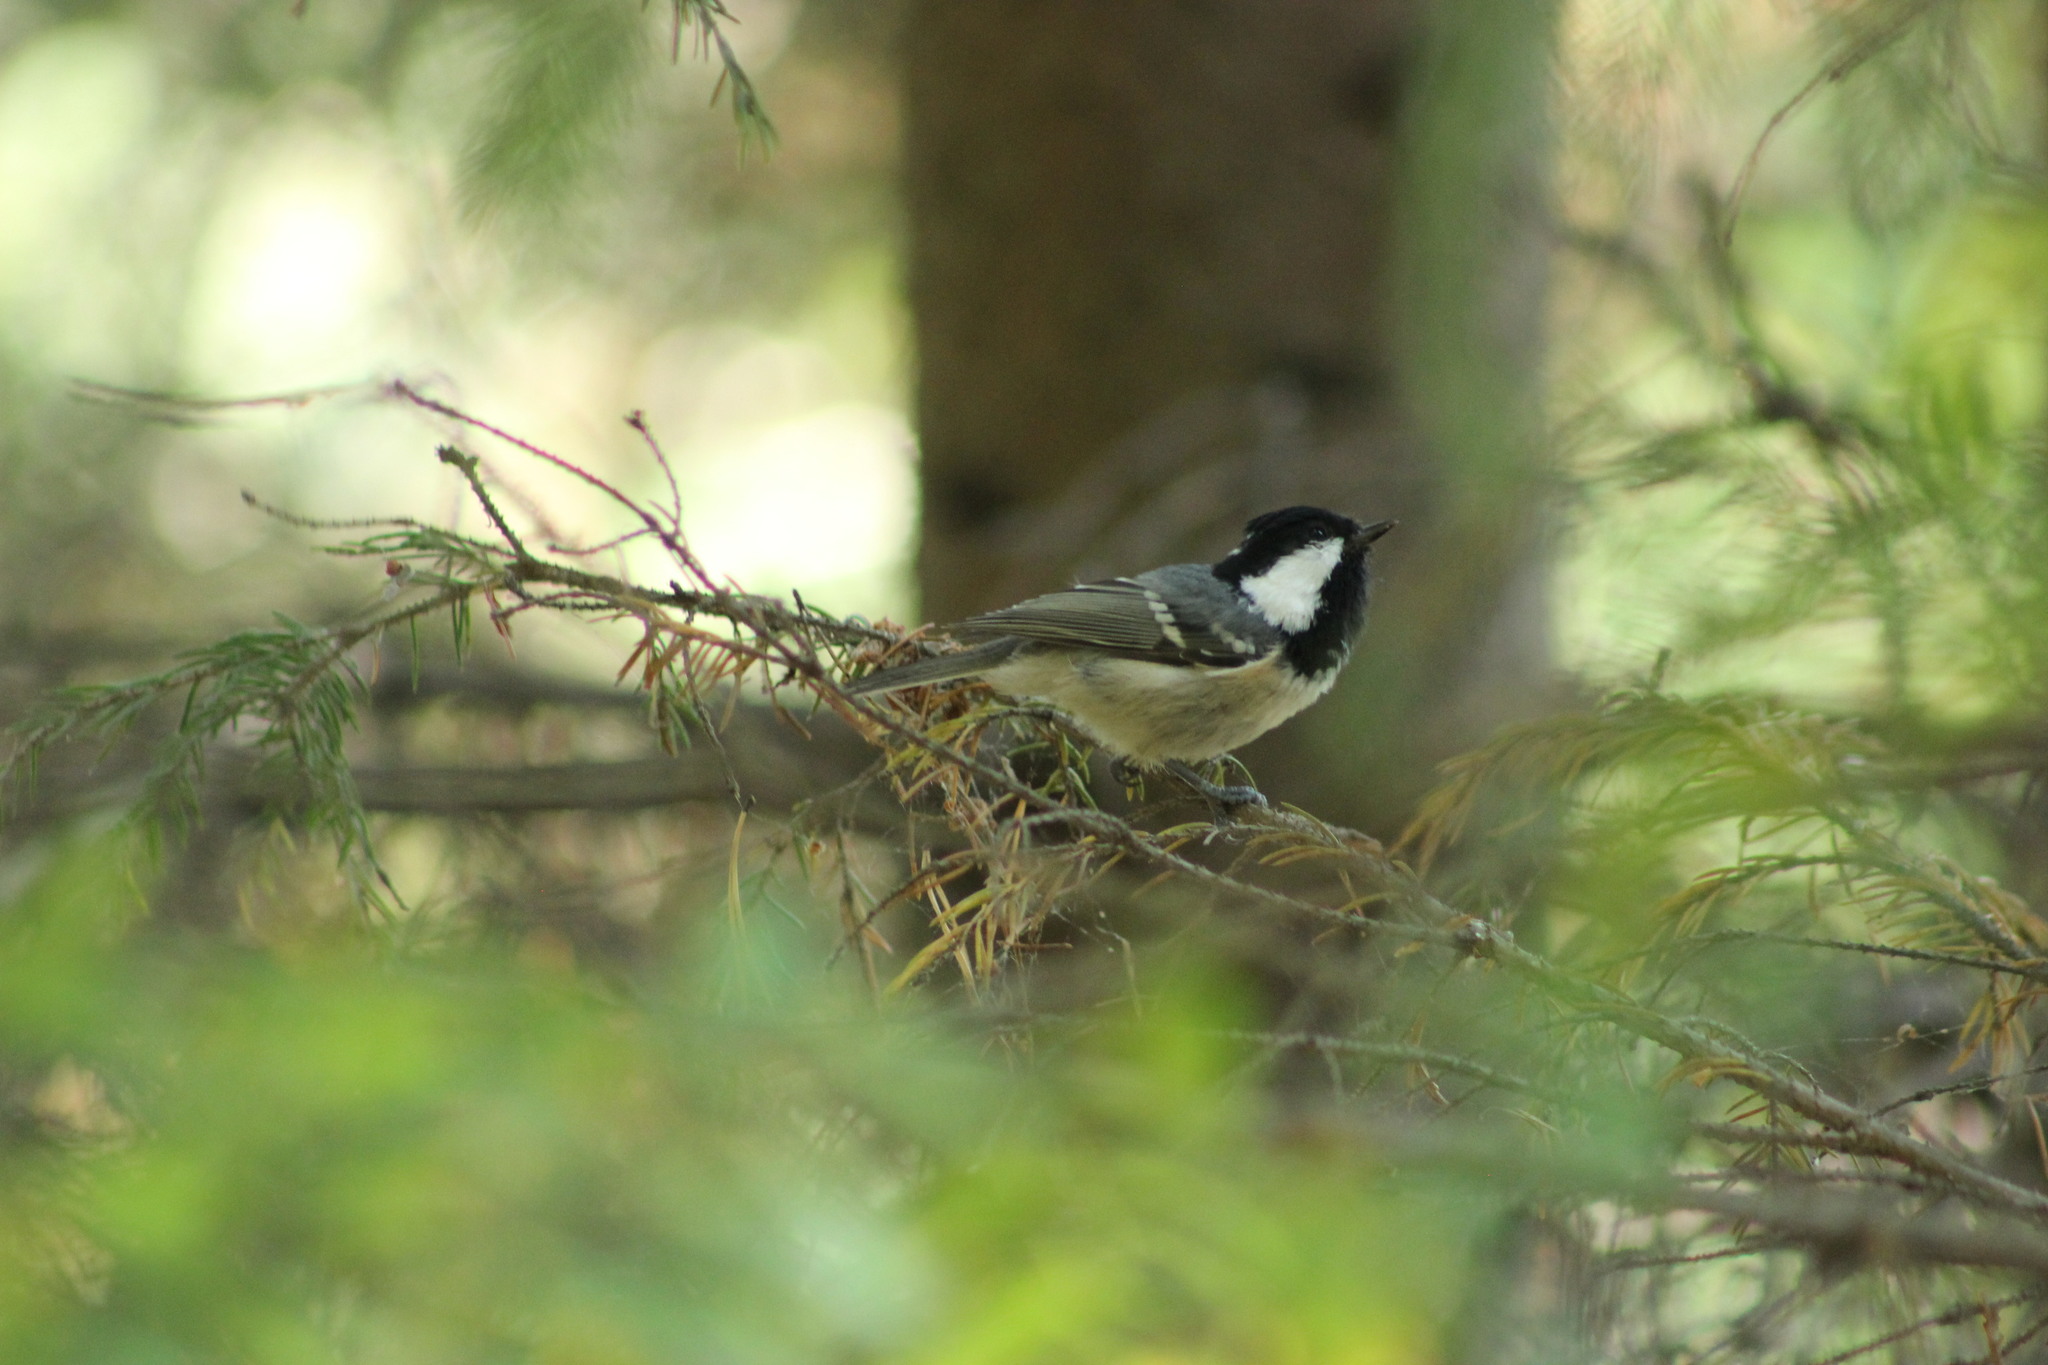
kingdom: Animalia
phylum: Chordata
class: Aves
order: Passeriformes
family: Paridae
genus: Periparus
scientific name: Periparus ater
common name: Coal tit
